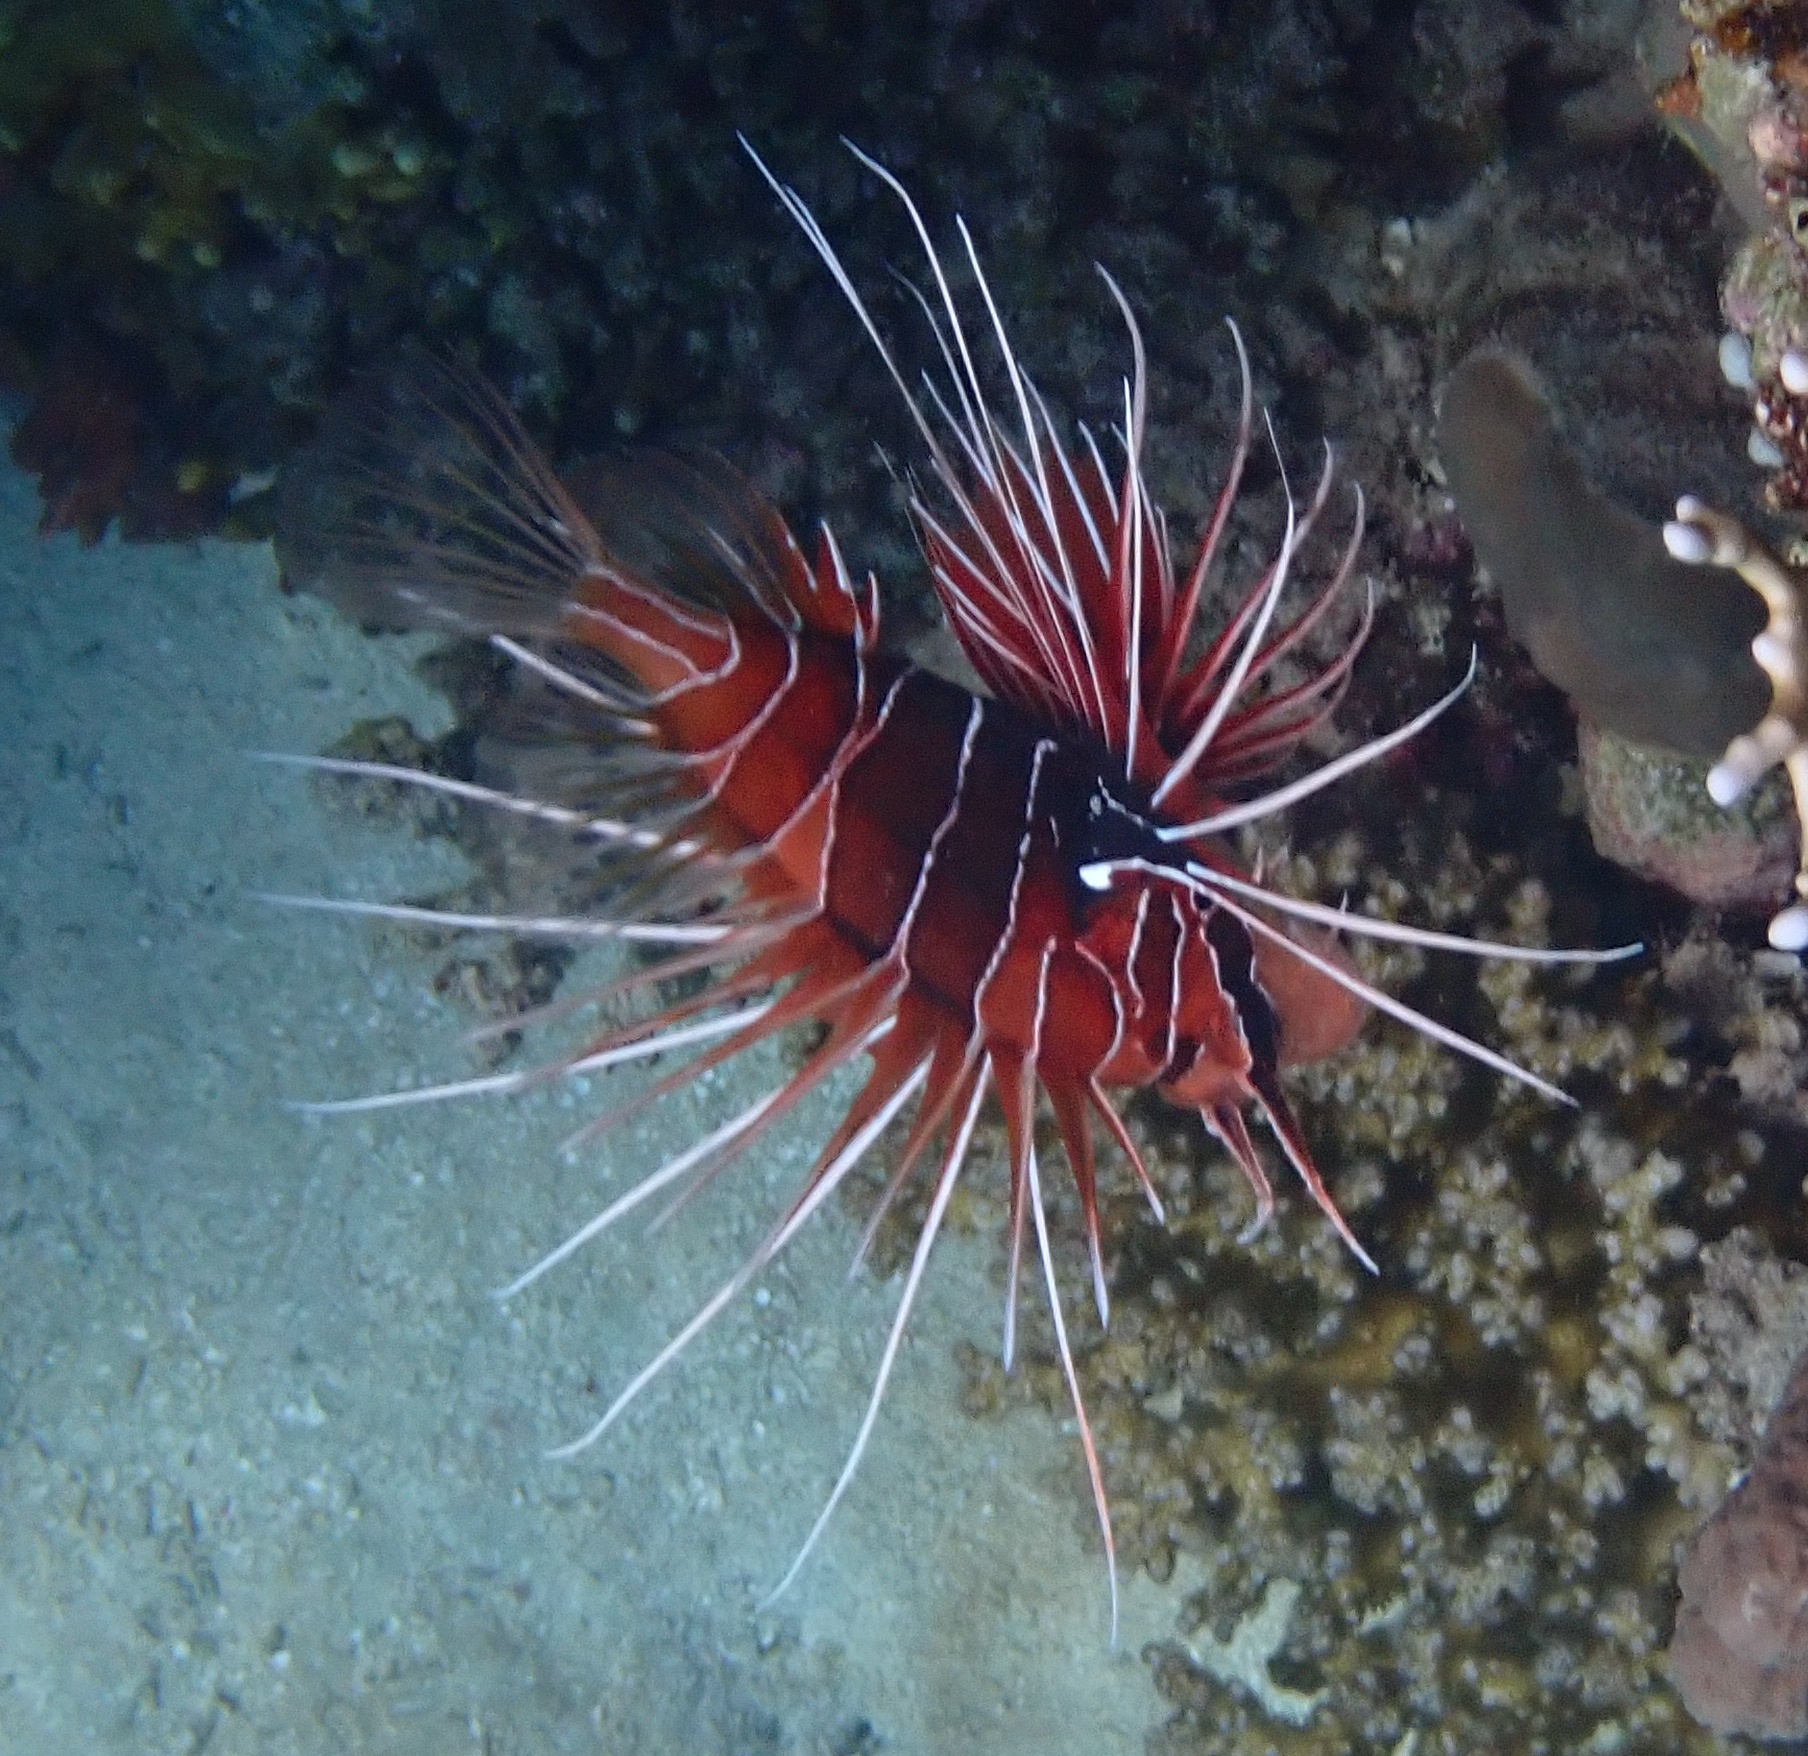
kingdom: Animalia
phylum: Chordata
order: Scorpaeniformes
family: Scorpaenidae
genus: Pterois
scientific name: Pterois cincta
